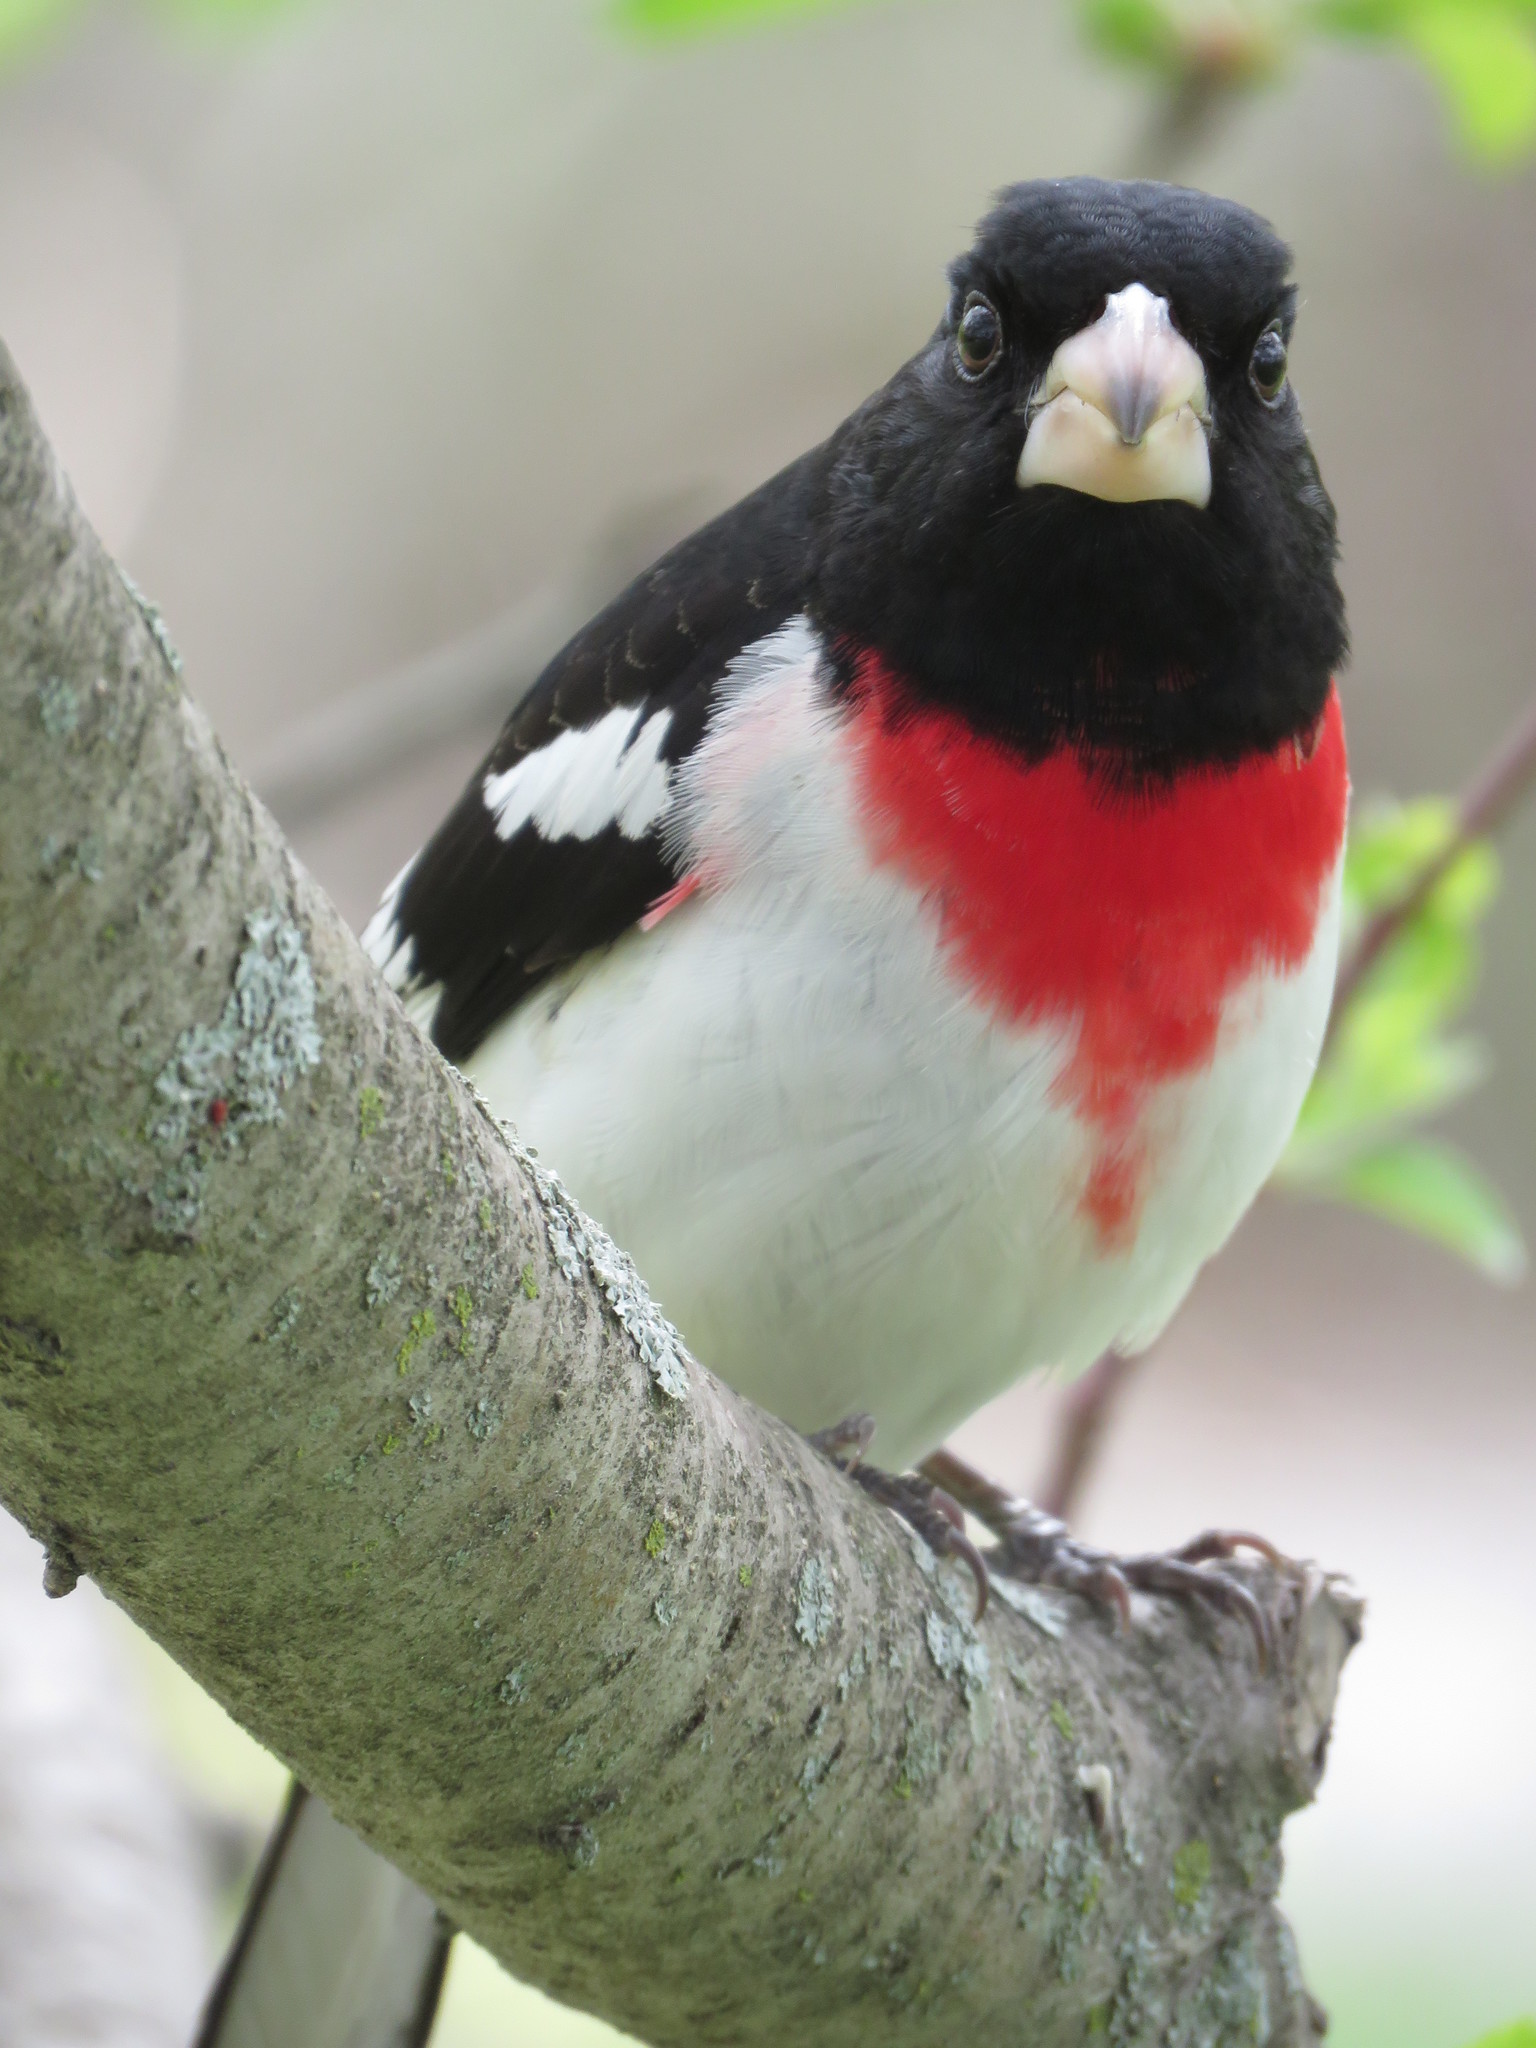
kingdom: Animalia
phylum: Chordata
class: Aves
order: Passeriformes
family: Cardinalidae
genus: Pheucticus
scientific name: Pheucticus ludovicianus
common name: Rose-breasted grosbeak
